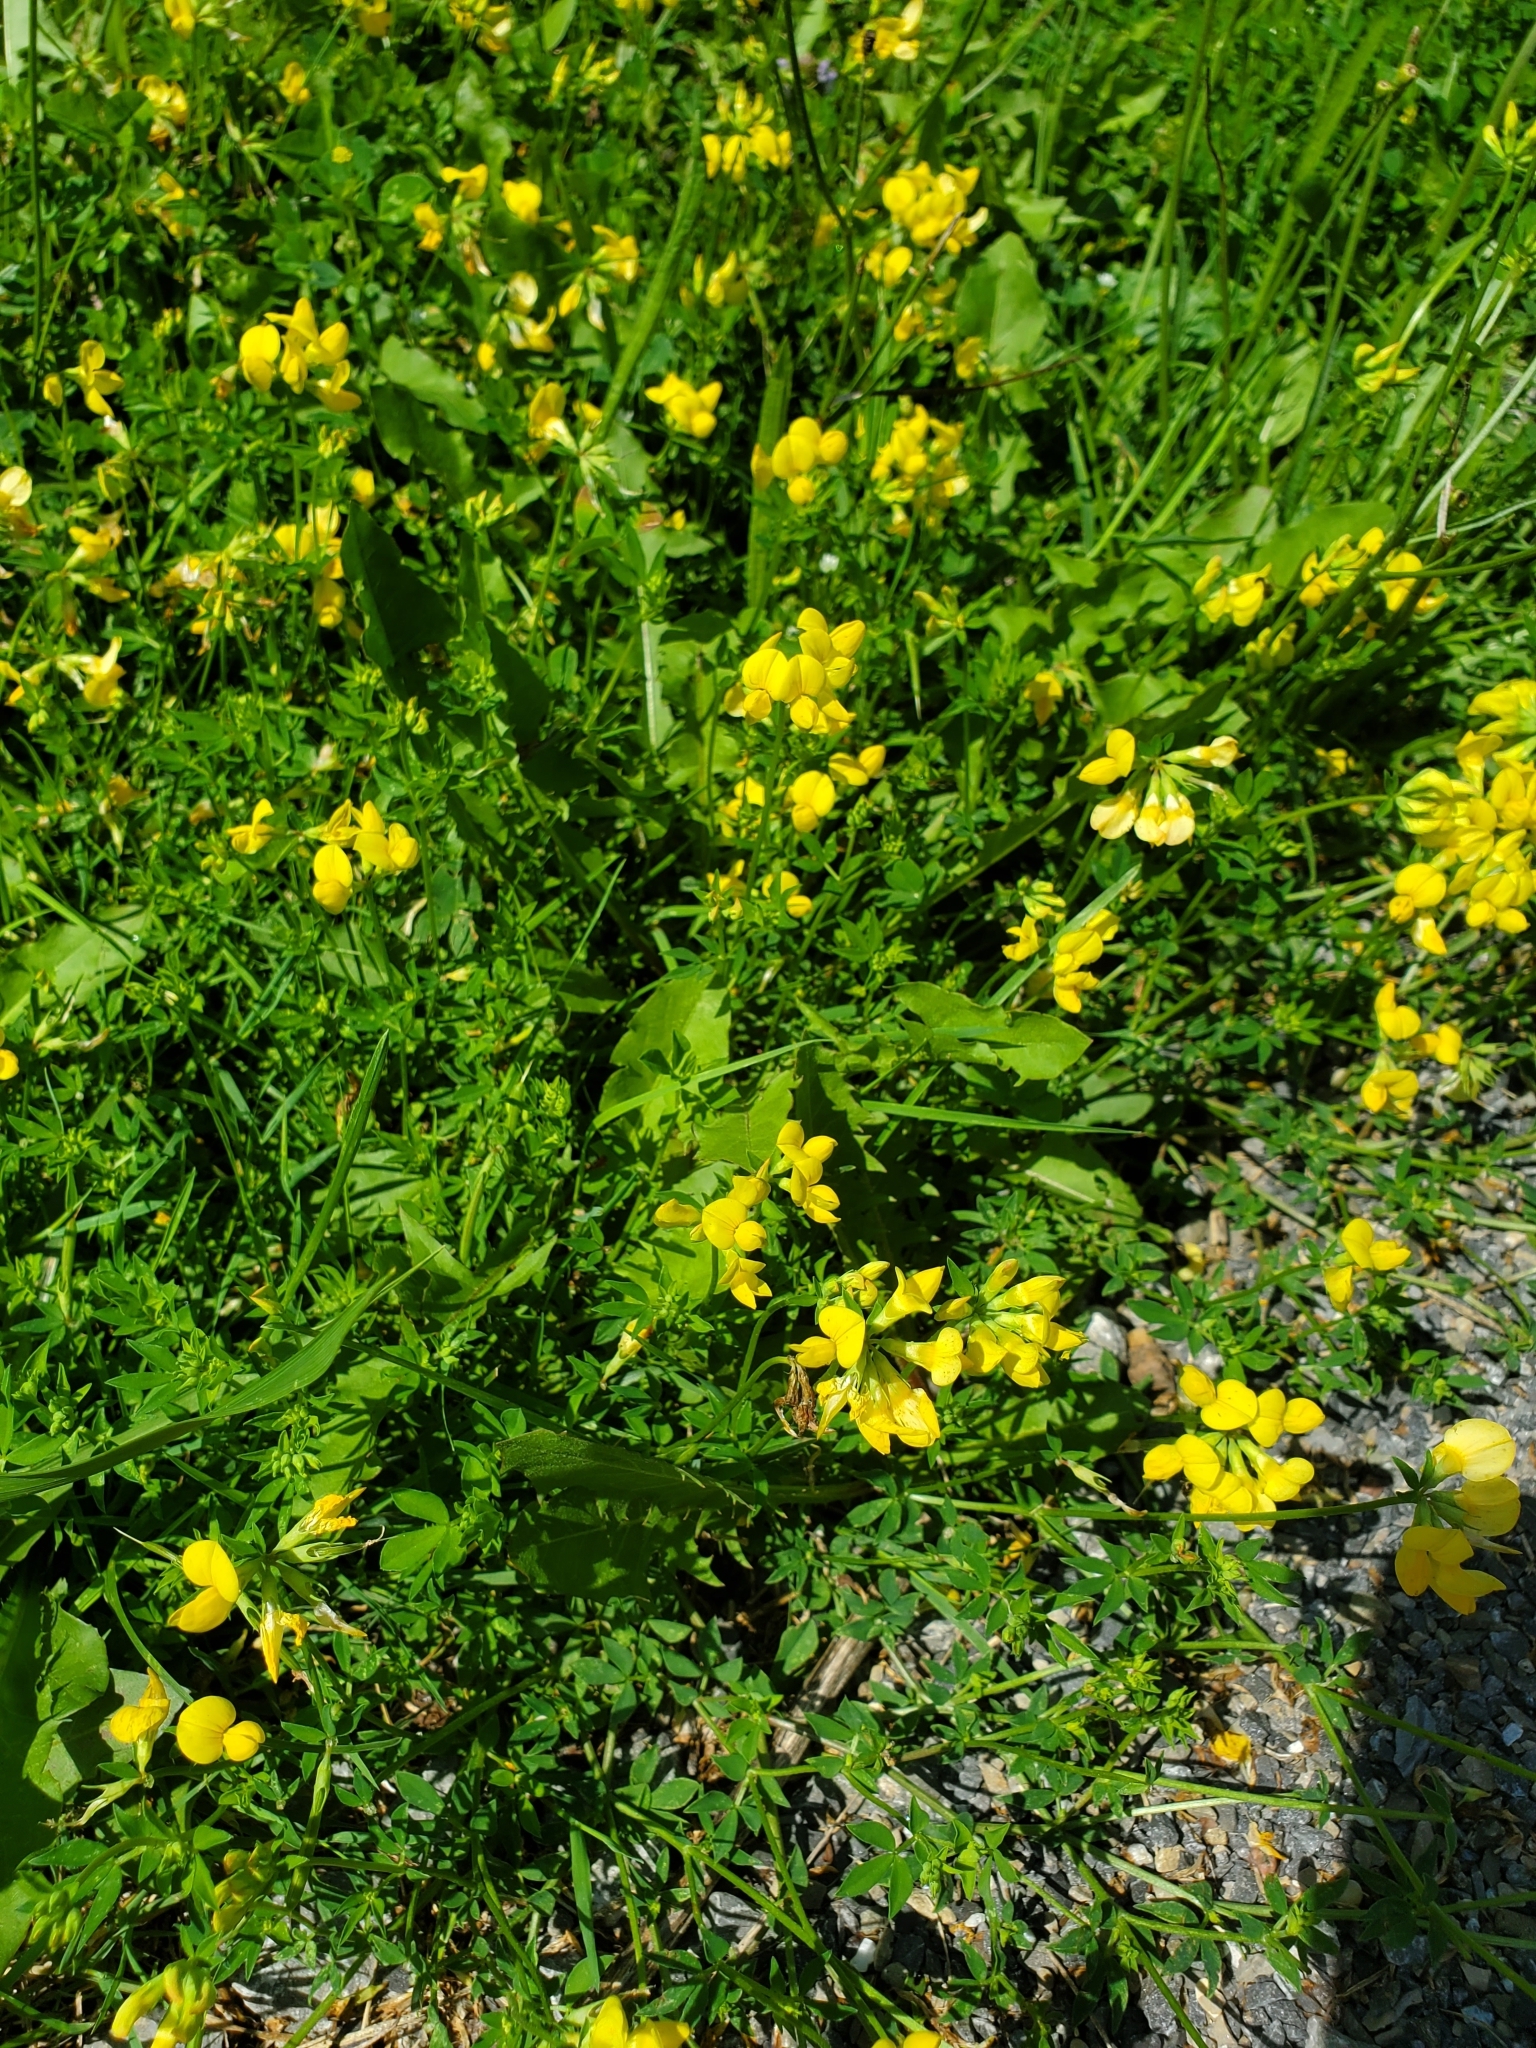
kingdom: Plantae
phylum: Tracheophyta
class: Magnoliopsida
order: Fabales
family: Fabaceae
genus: Lotus
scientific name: Lotus corniculatus
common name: Common bird's-foot-trefoil
